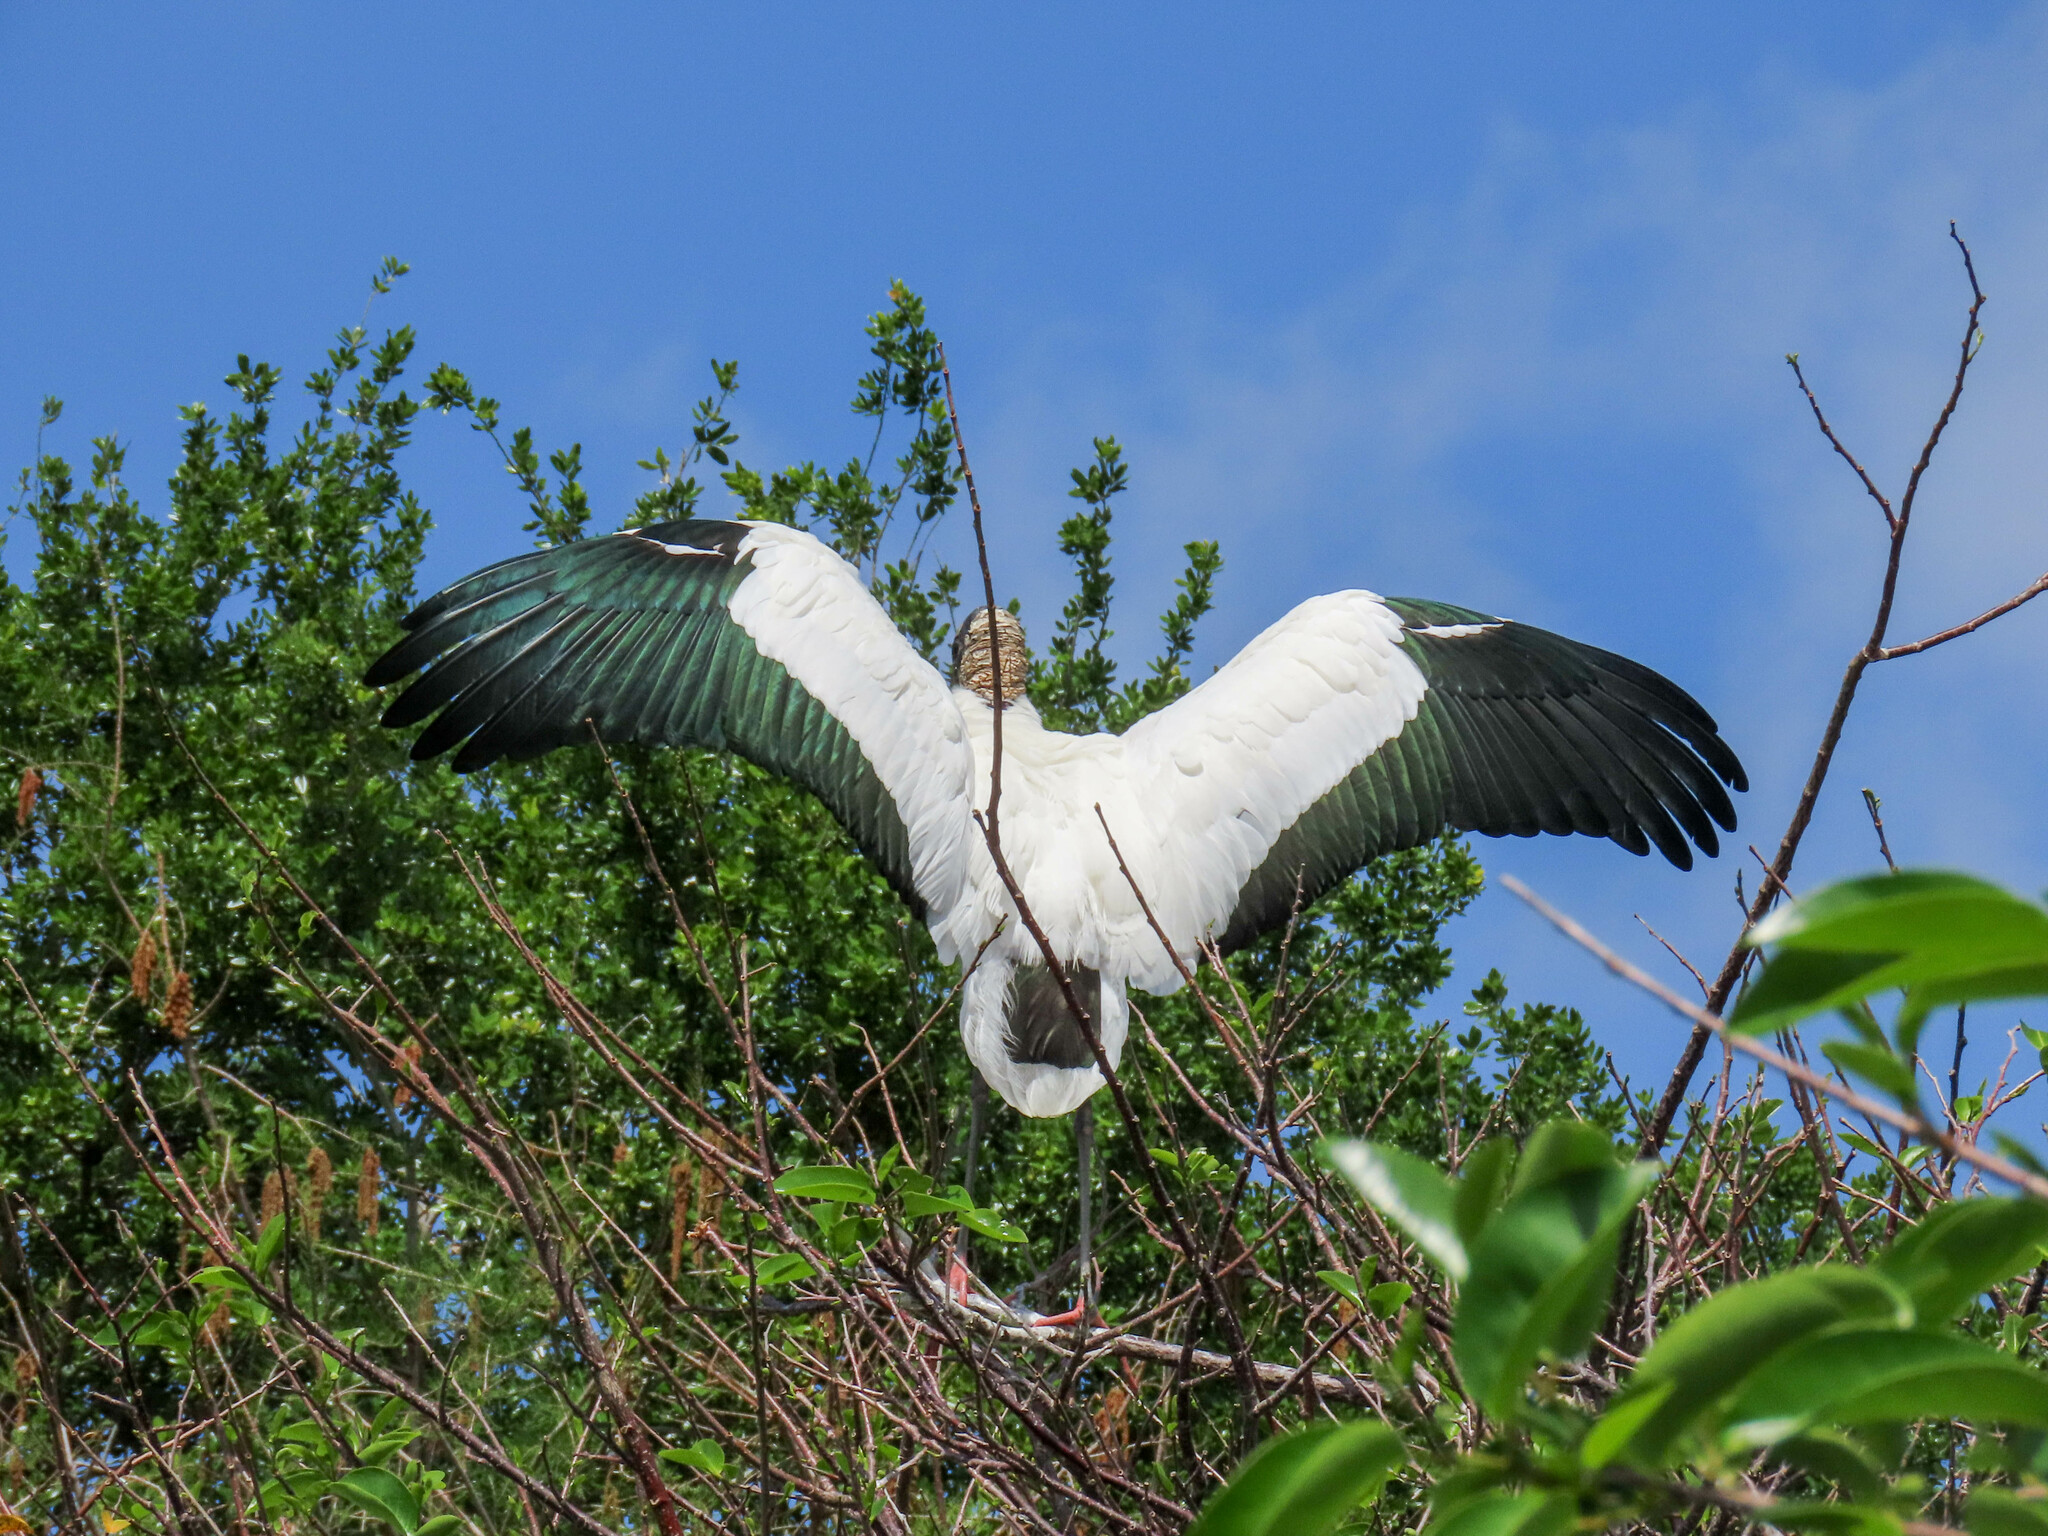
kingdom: Animalia
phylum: Chordata
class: Aves
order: Ciconiiformes
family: Ciconiidae
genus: Mycteria
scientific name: Mycteria americana
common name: Wood stork
